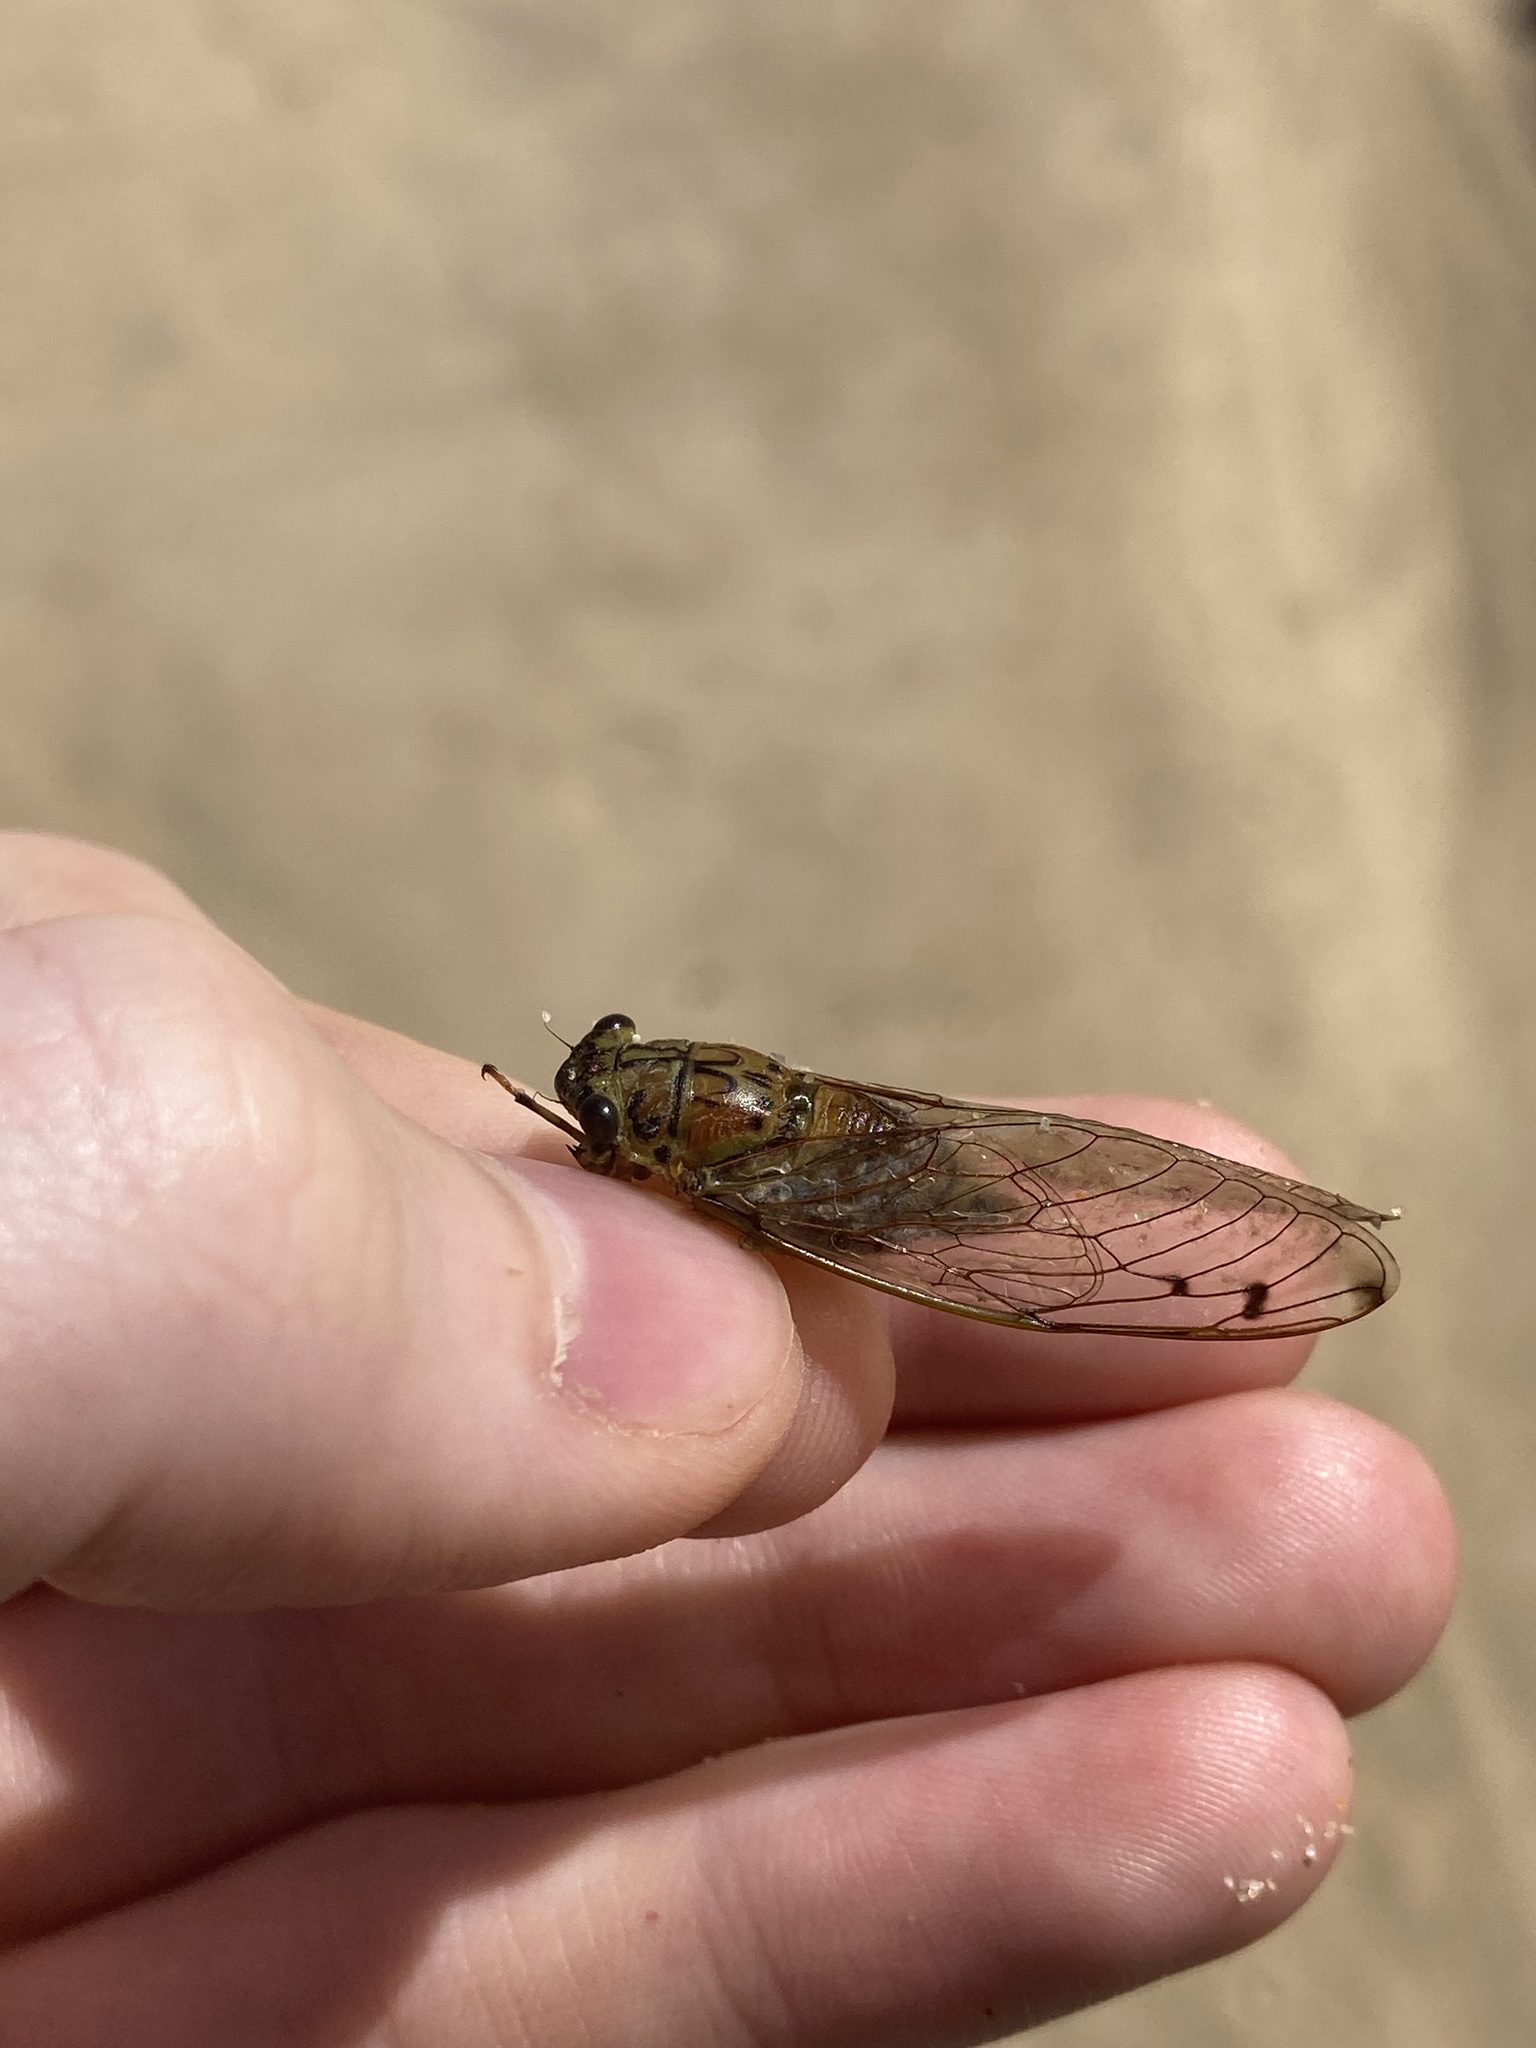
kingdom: Animalia
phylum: Arthropoda
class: Insecta
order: Hemiptera
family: Cicadidae
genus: Tamasa
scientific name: Tamasa tristigma
